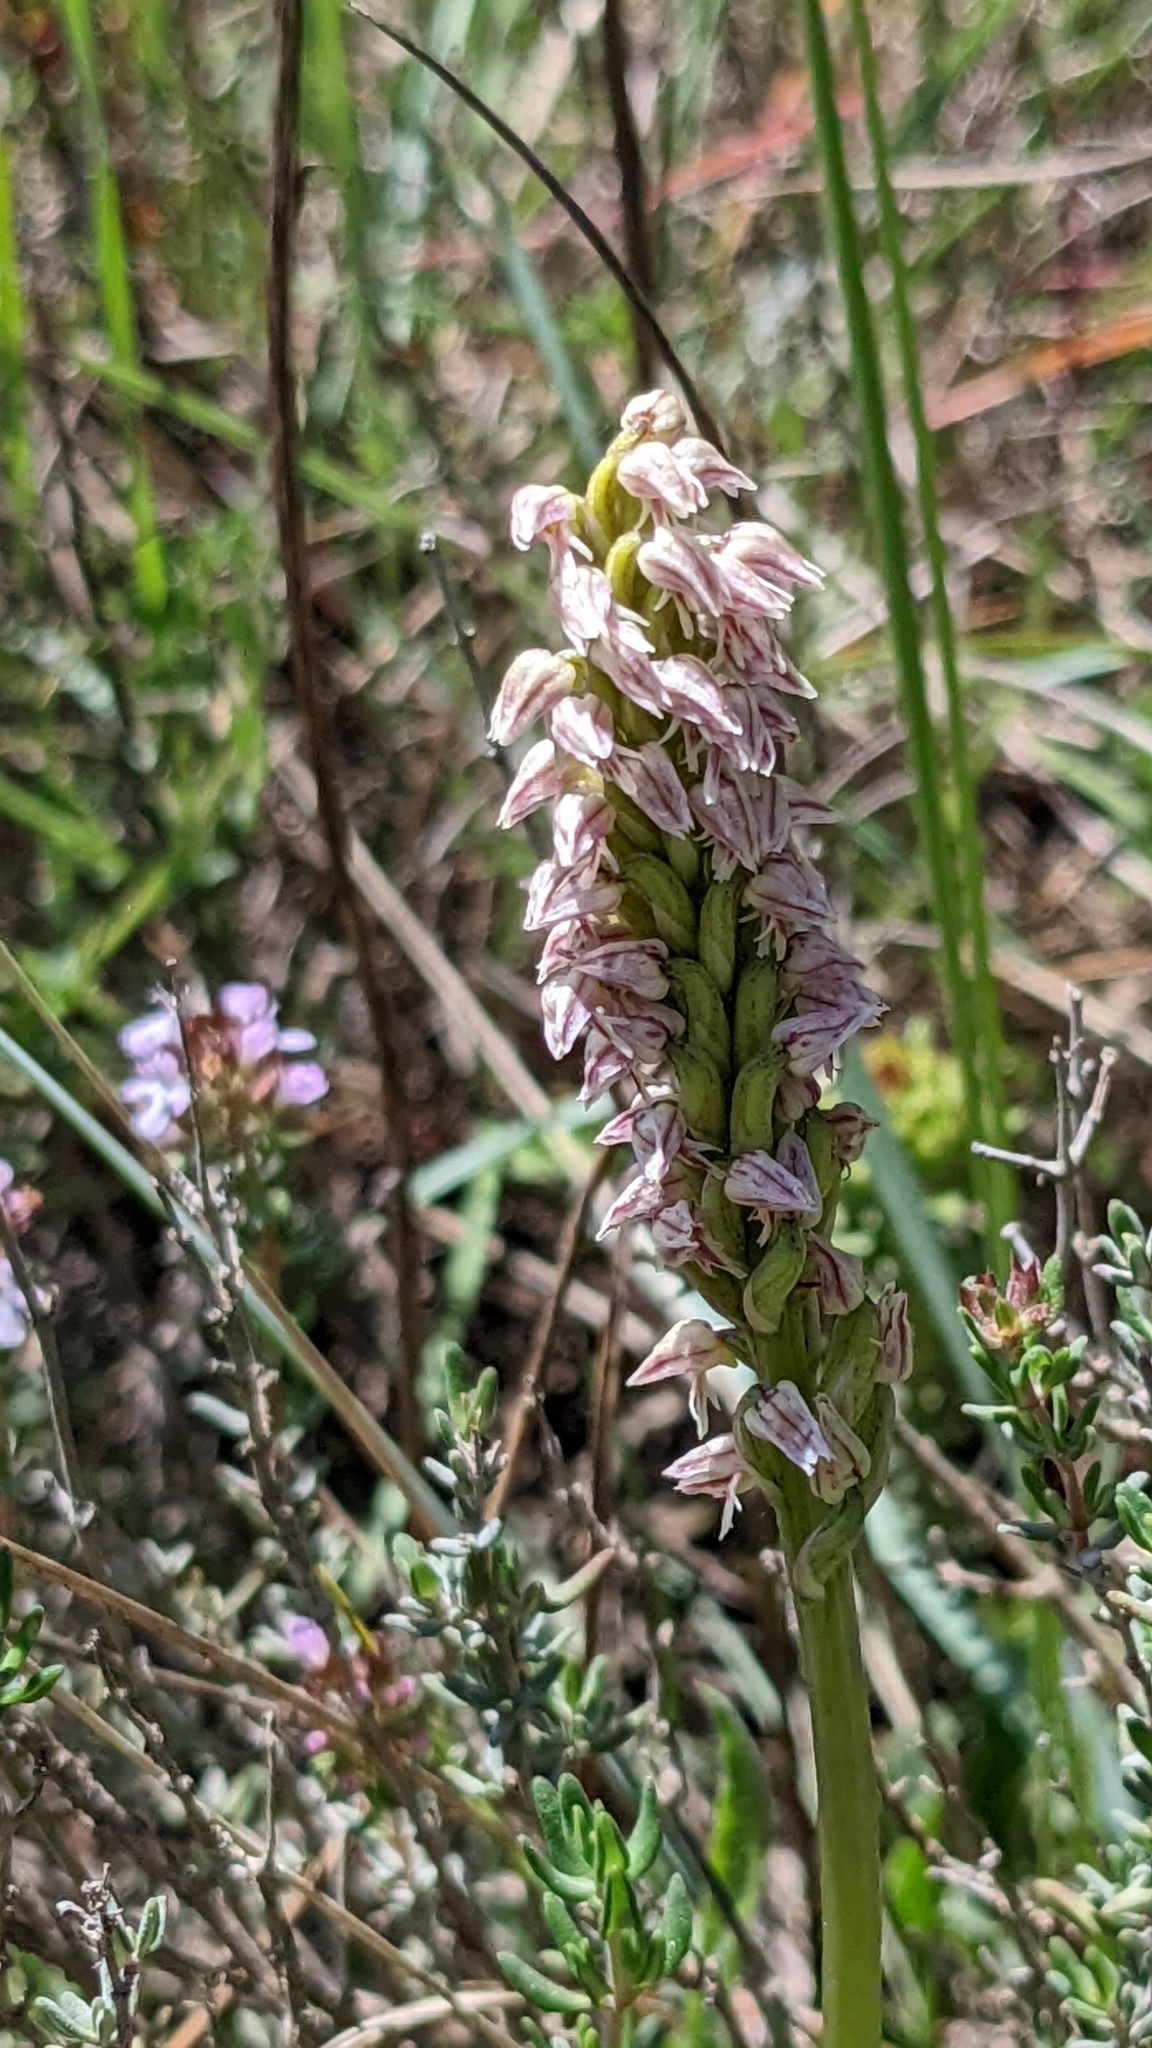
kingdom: Plantae
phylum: Tracheophyta
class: Liliopsida
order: Asparagales
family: Orchidaceae
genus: Neotinea
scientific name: Neotinea maculata
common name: Dense-flowered orchid
